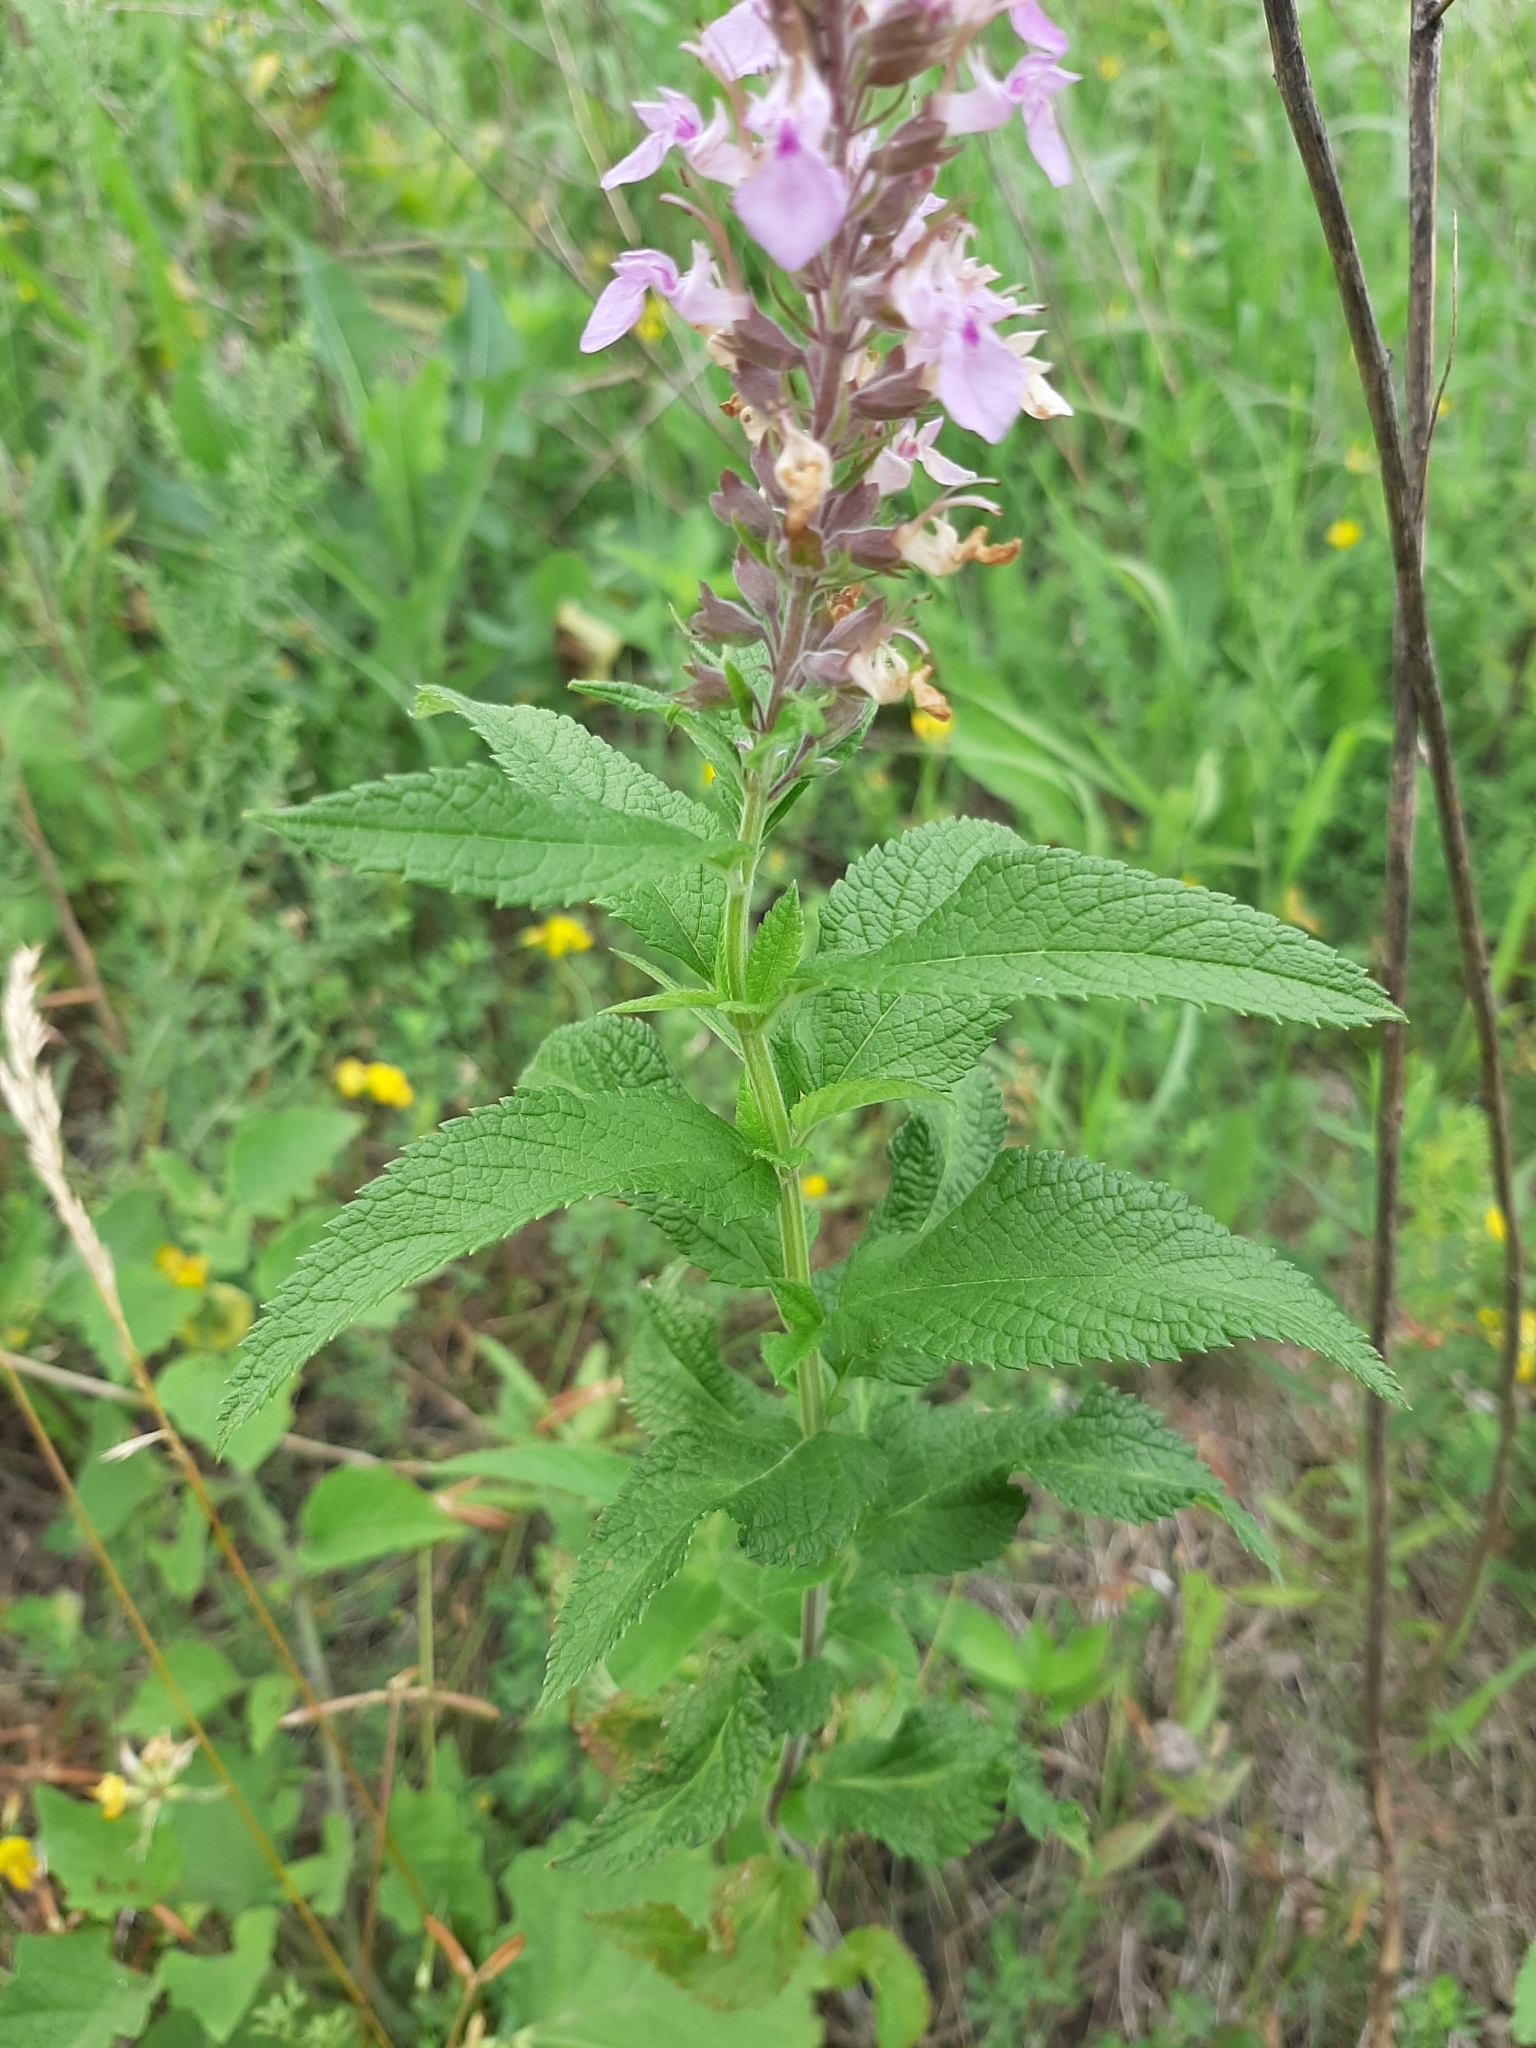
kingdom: Plantae
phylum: Tracheophyta
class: Magnoliopsida
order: Lamiales
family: Lamiaceae
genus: Teucrium
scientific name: Teucrium canadense
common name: American germander
